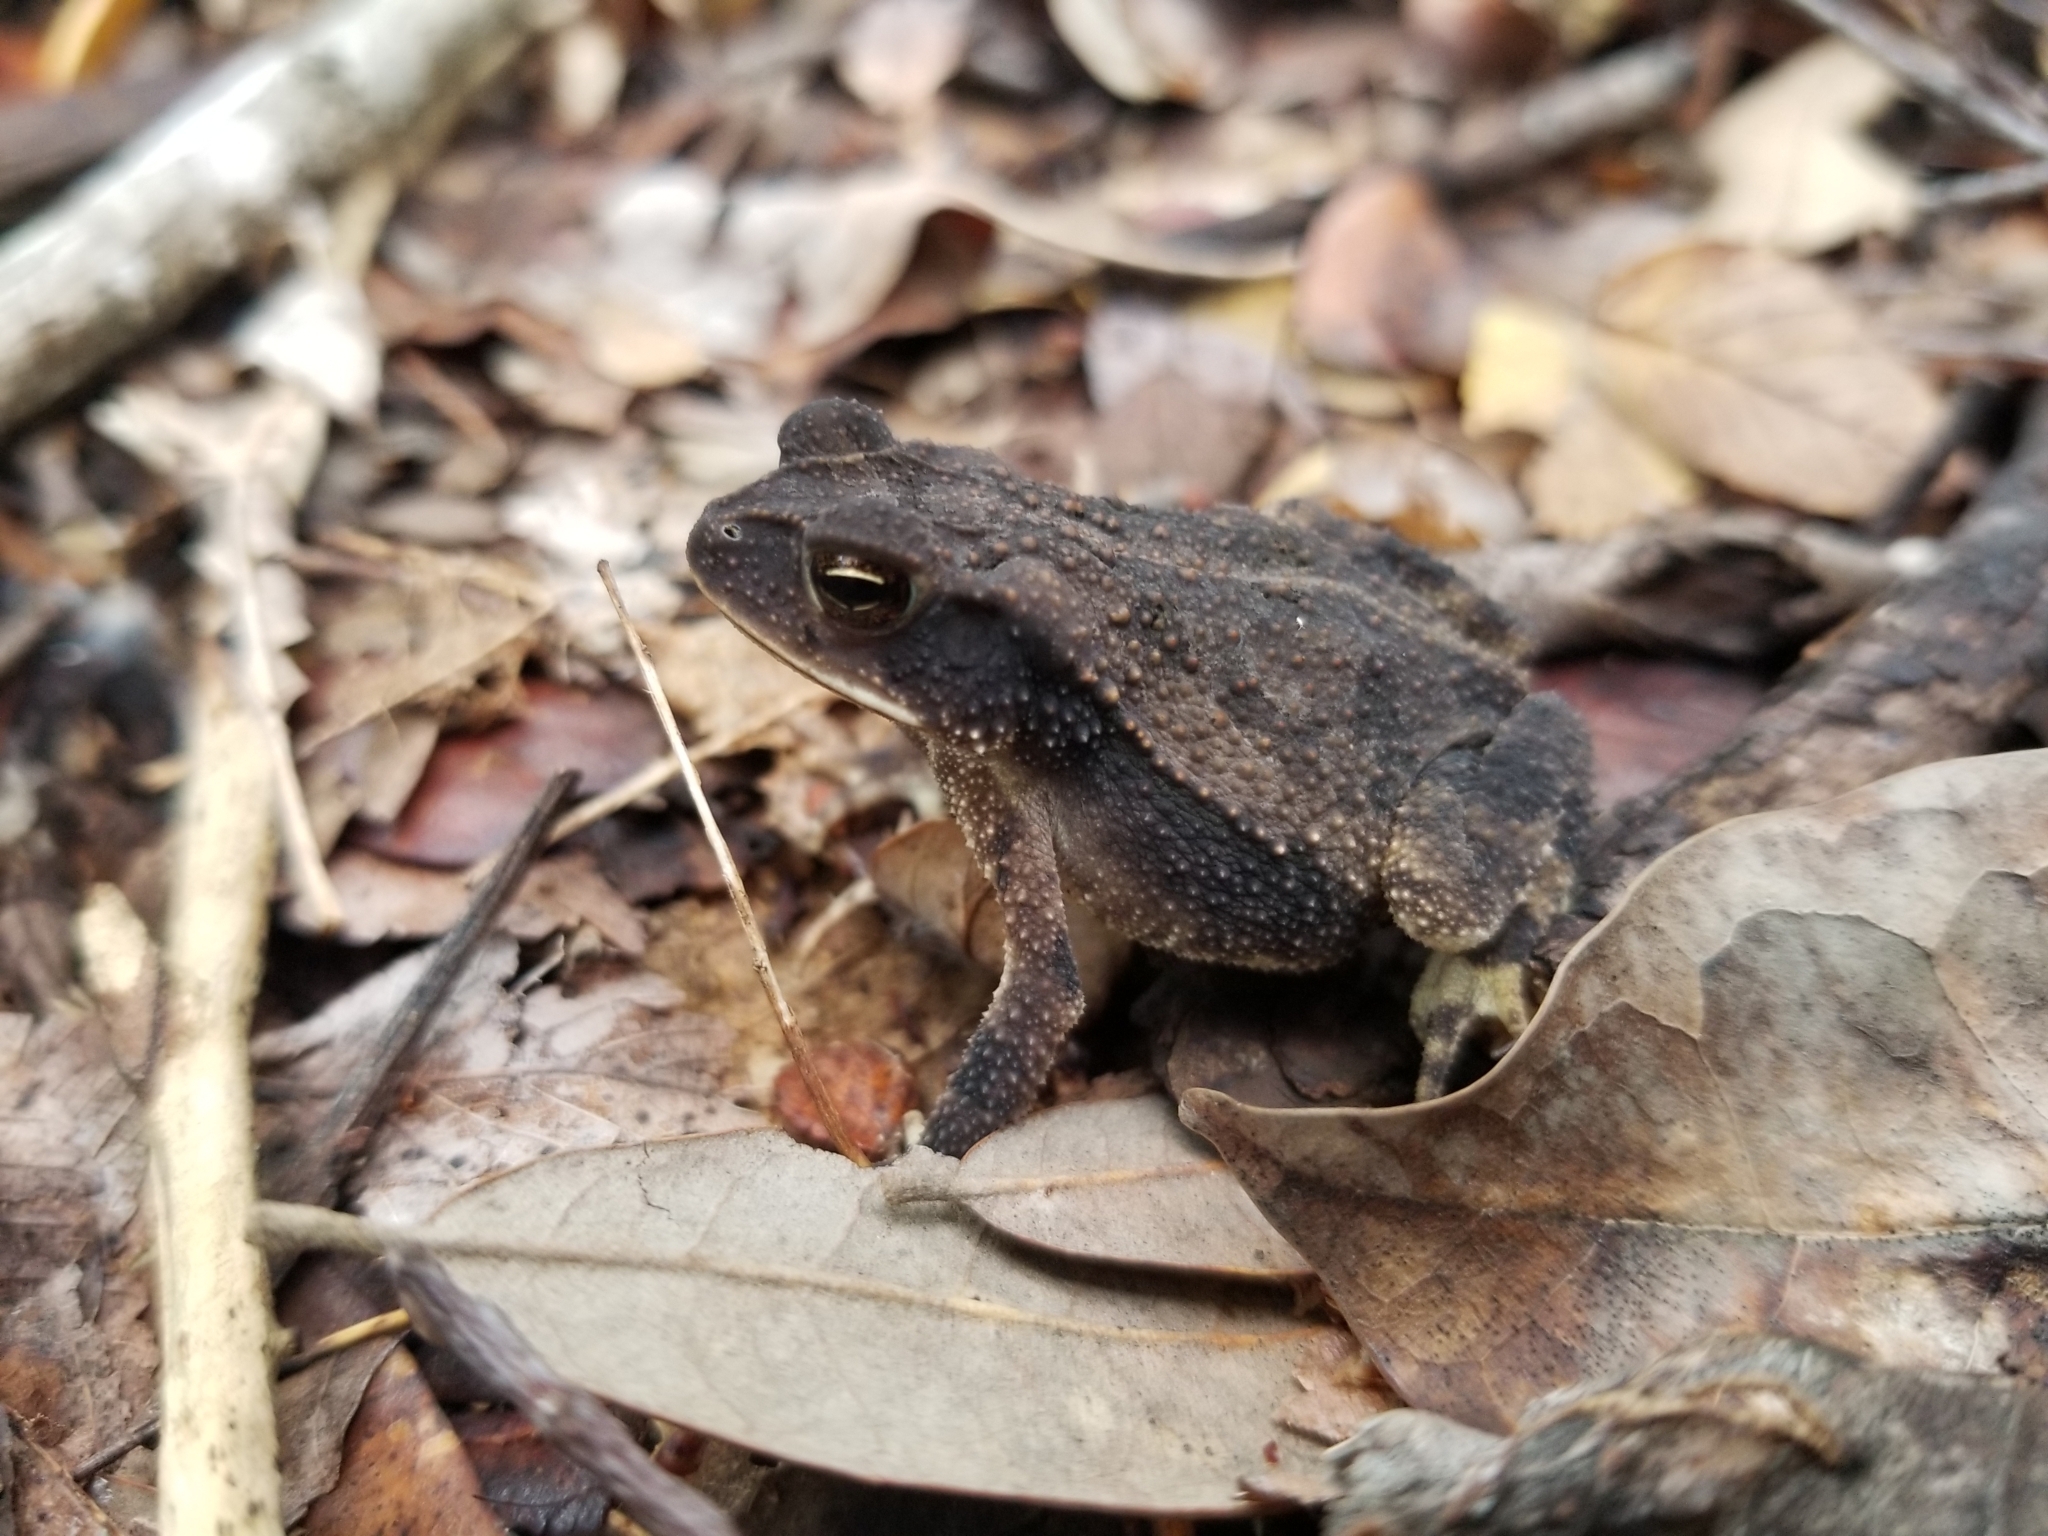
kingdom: Animalia
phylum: Chordata
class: Amphibia
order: Anura
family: Bufonidae
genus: Incilius
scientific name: Incilius nebulifer
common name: Gulf coast toad
